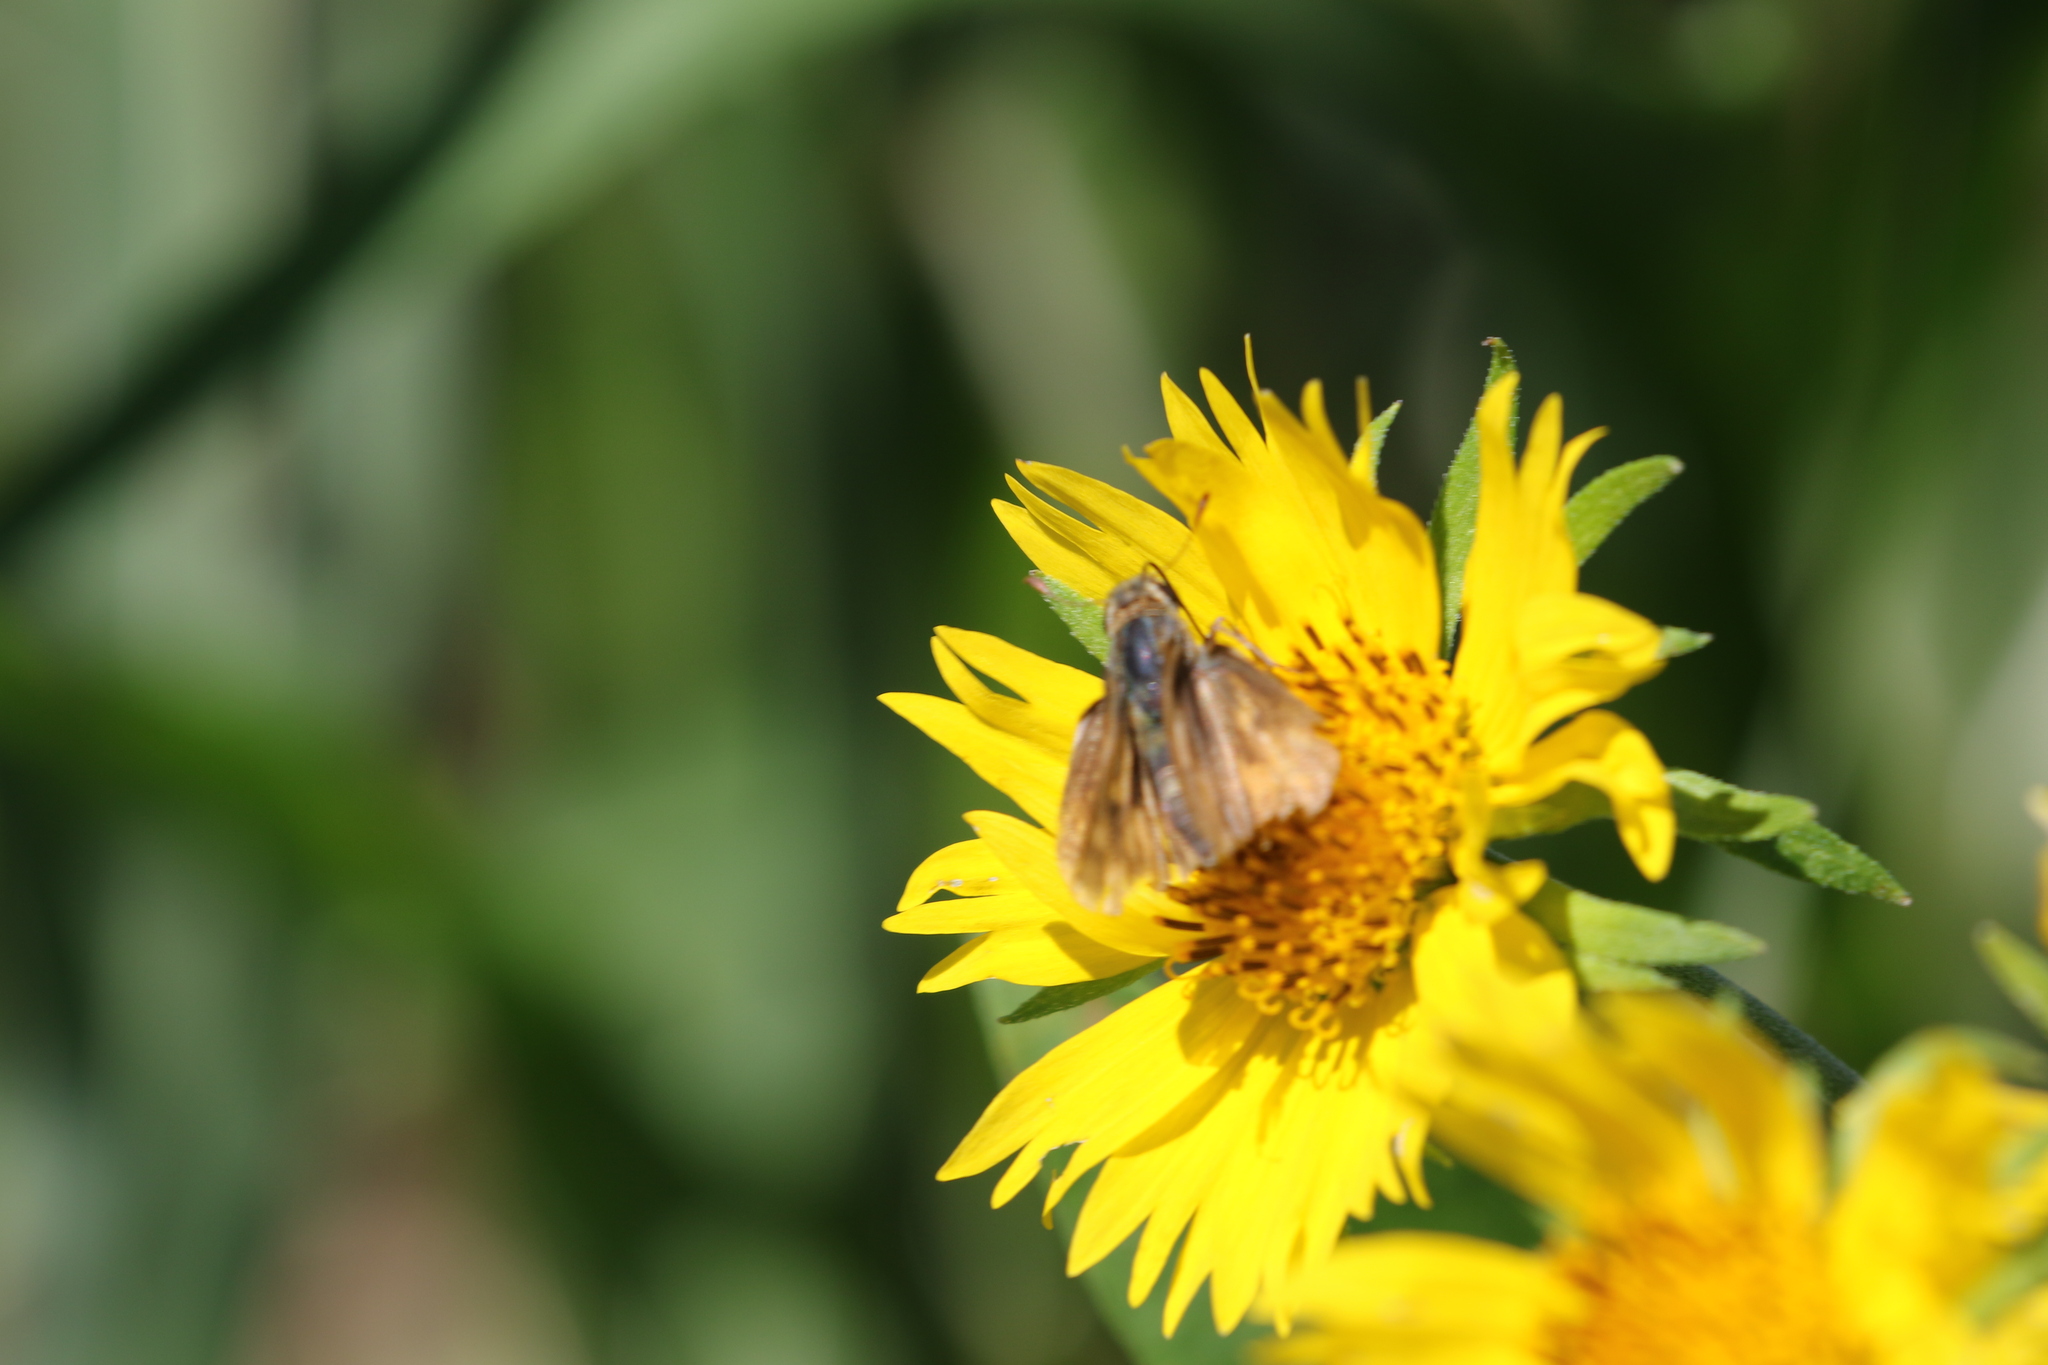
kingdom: Animalia
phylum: Arthropoda
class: Insecta
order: Lepidoptera
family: Hesperiidae
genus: Hylephila
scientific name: Hylephila phyleus
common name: Fiery skipper
